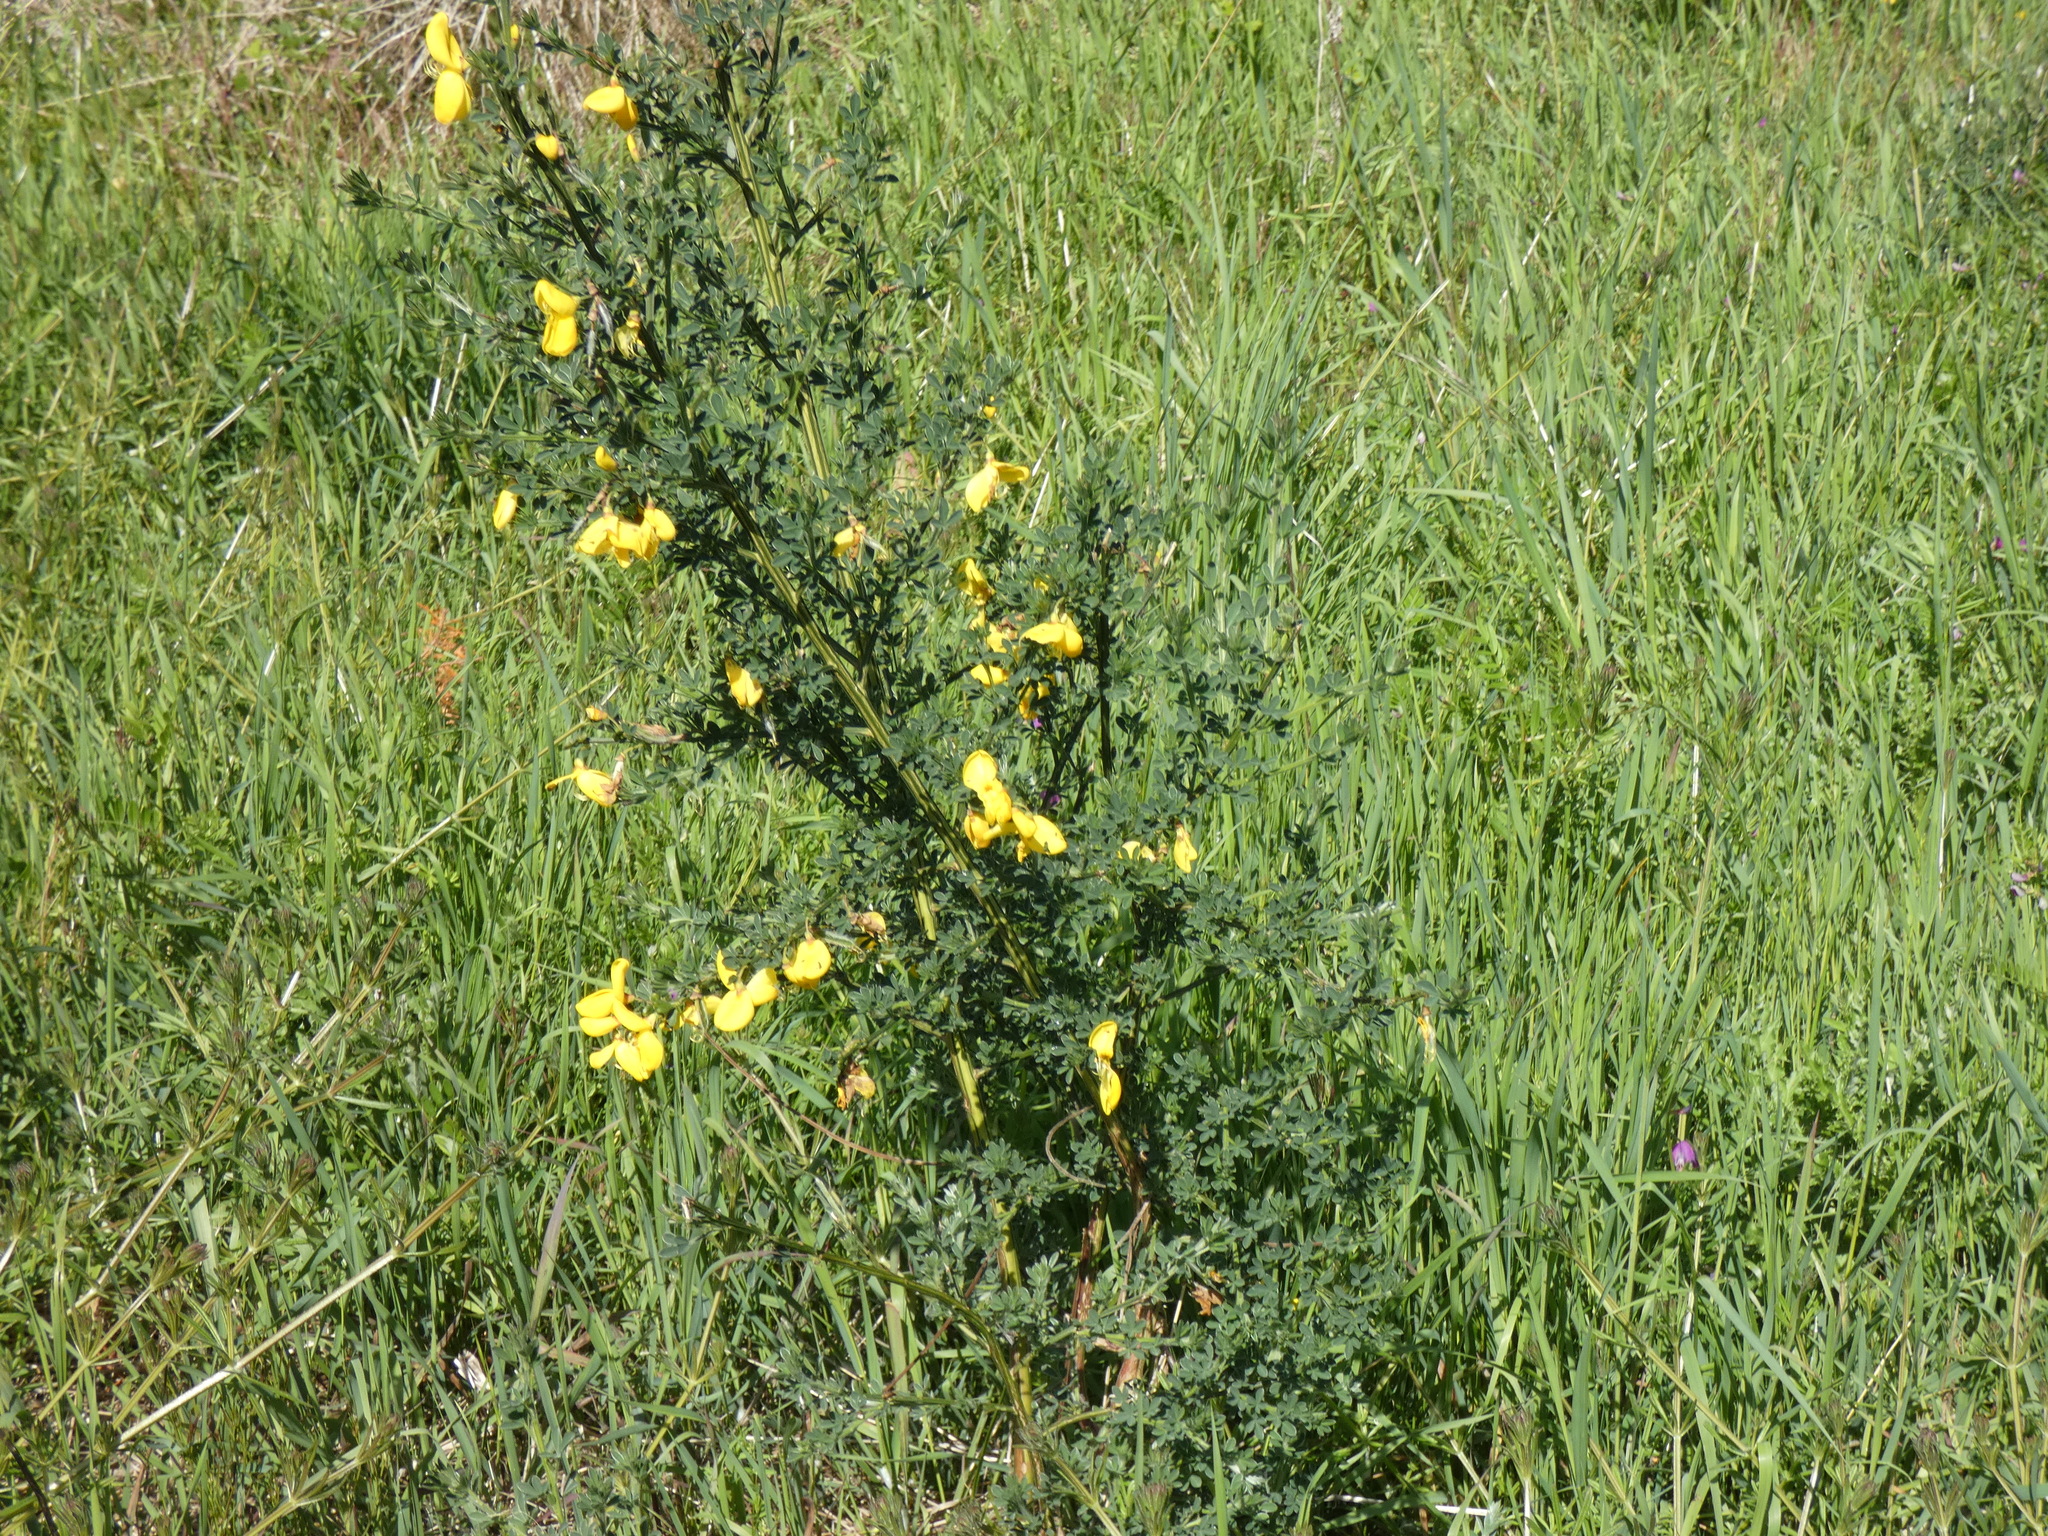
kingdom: Plantae
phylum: Tracheophyta
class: Magnoliopsida
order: Fabales
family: Fabaceae
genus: Cytisus
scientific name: Cytisus scoparius
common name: Scotch broom
